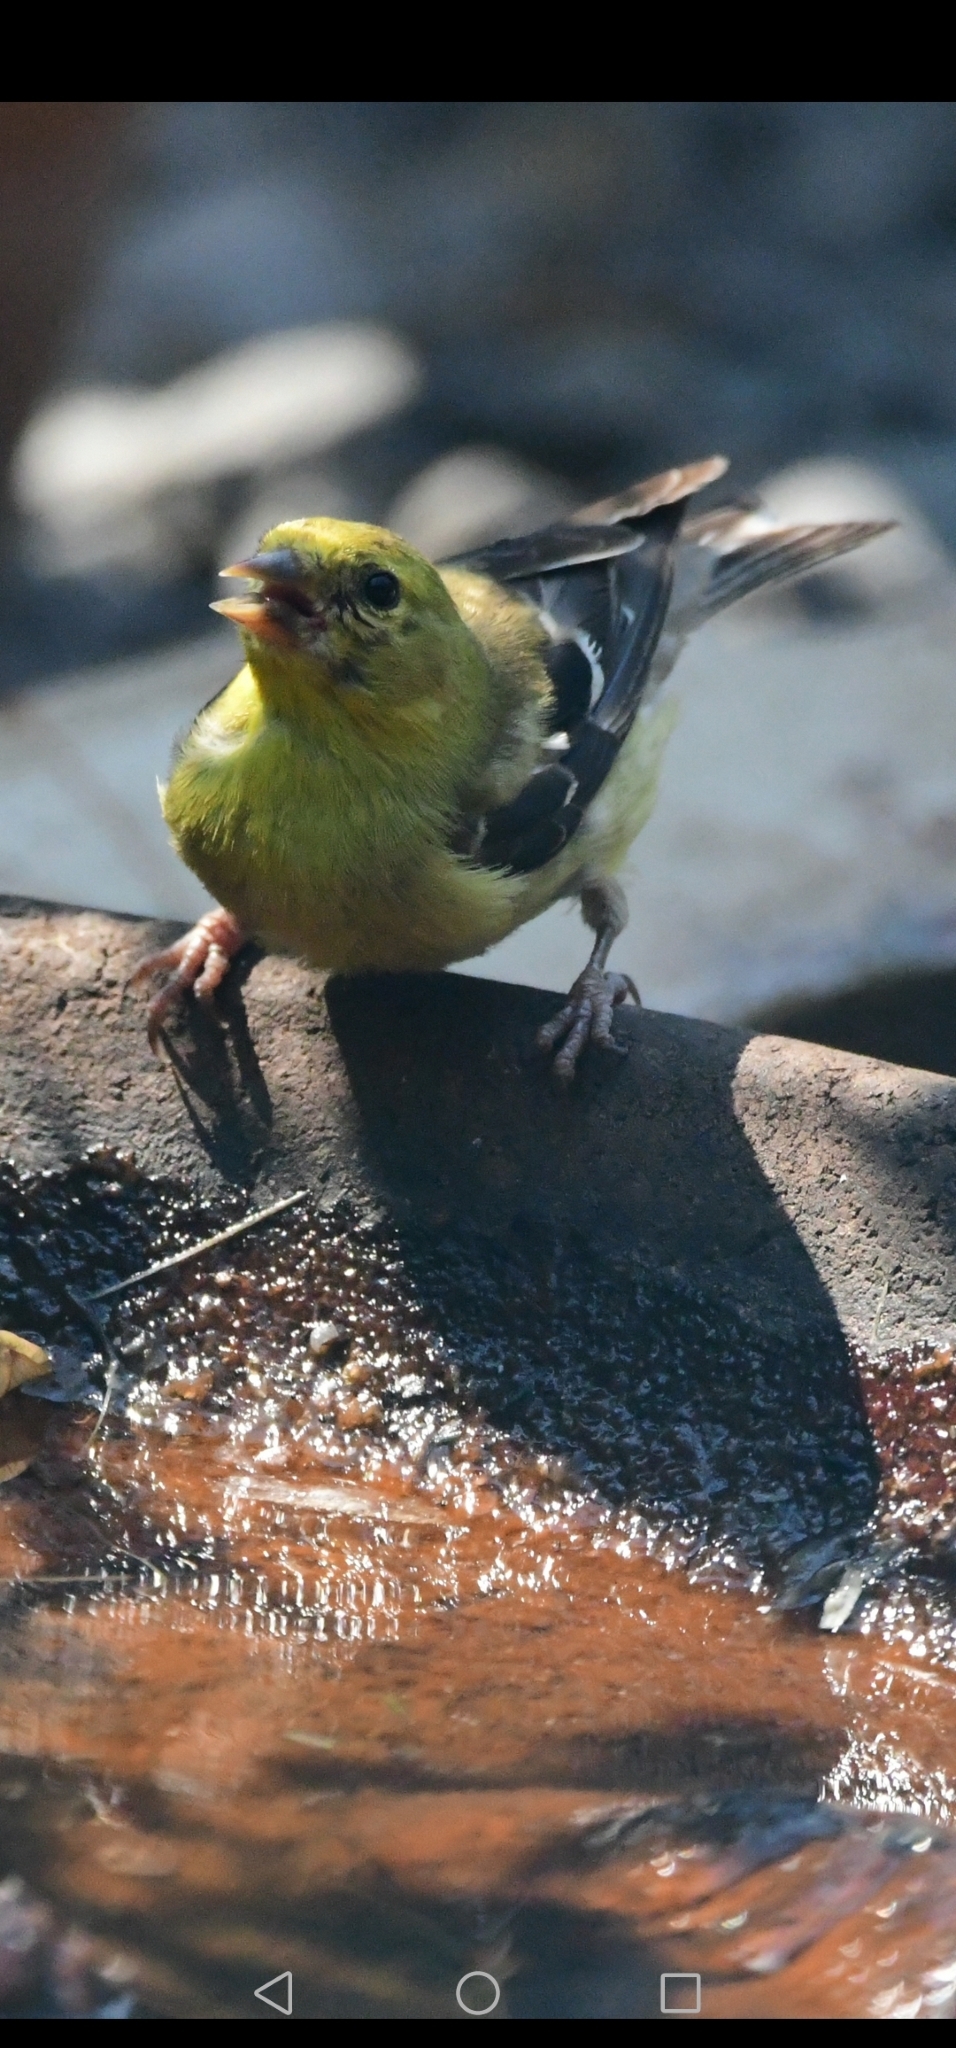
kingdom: Animalia
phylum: Chordata
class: Aves
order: Passeriformes
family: Fringillidae
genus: Spinus
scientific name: Spinus tristis
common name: American goldfinch
